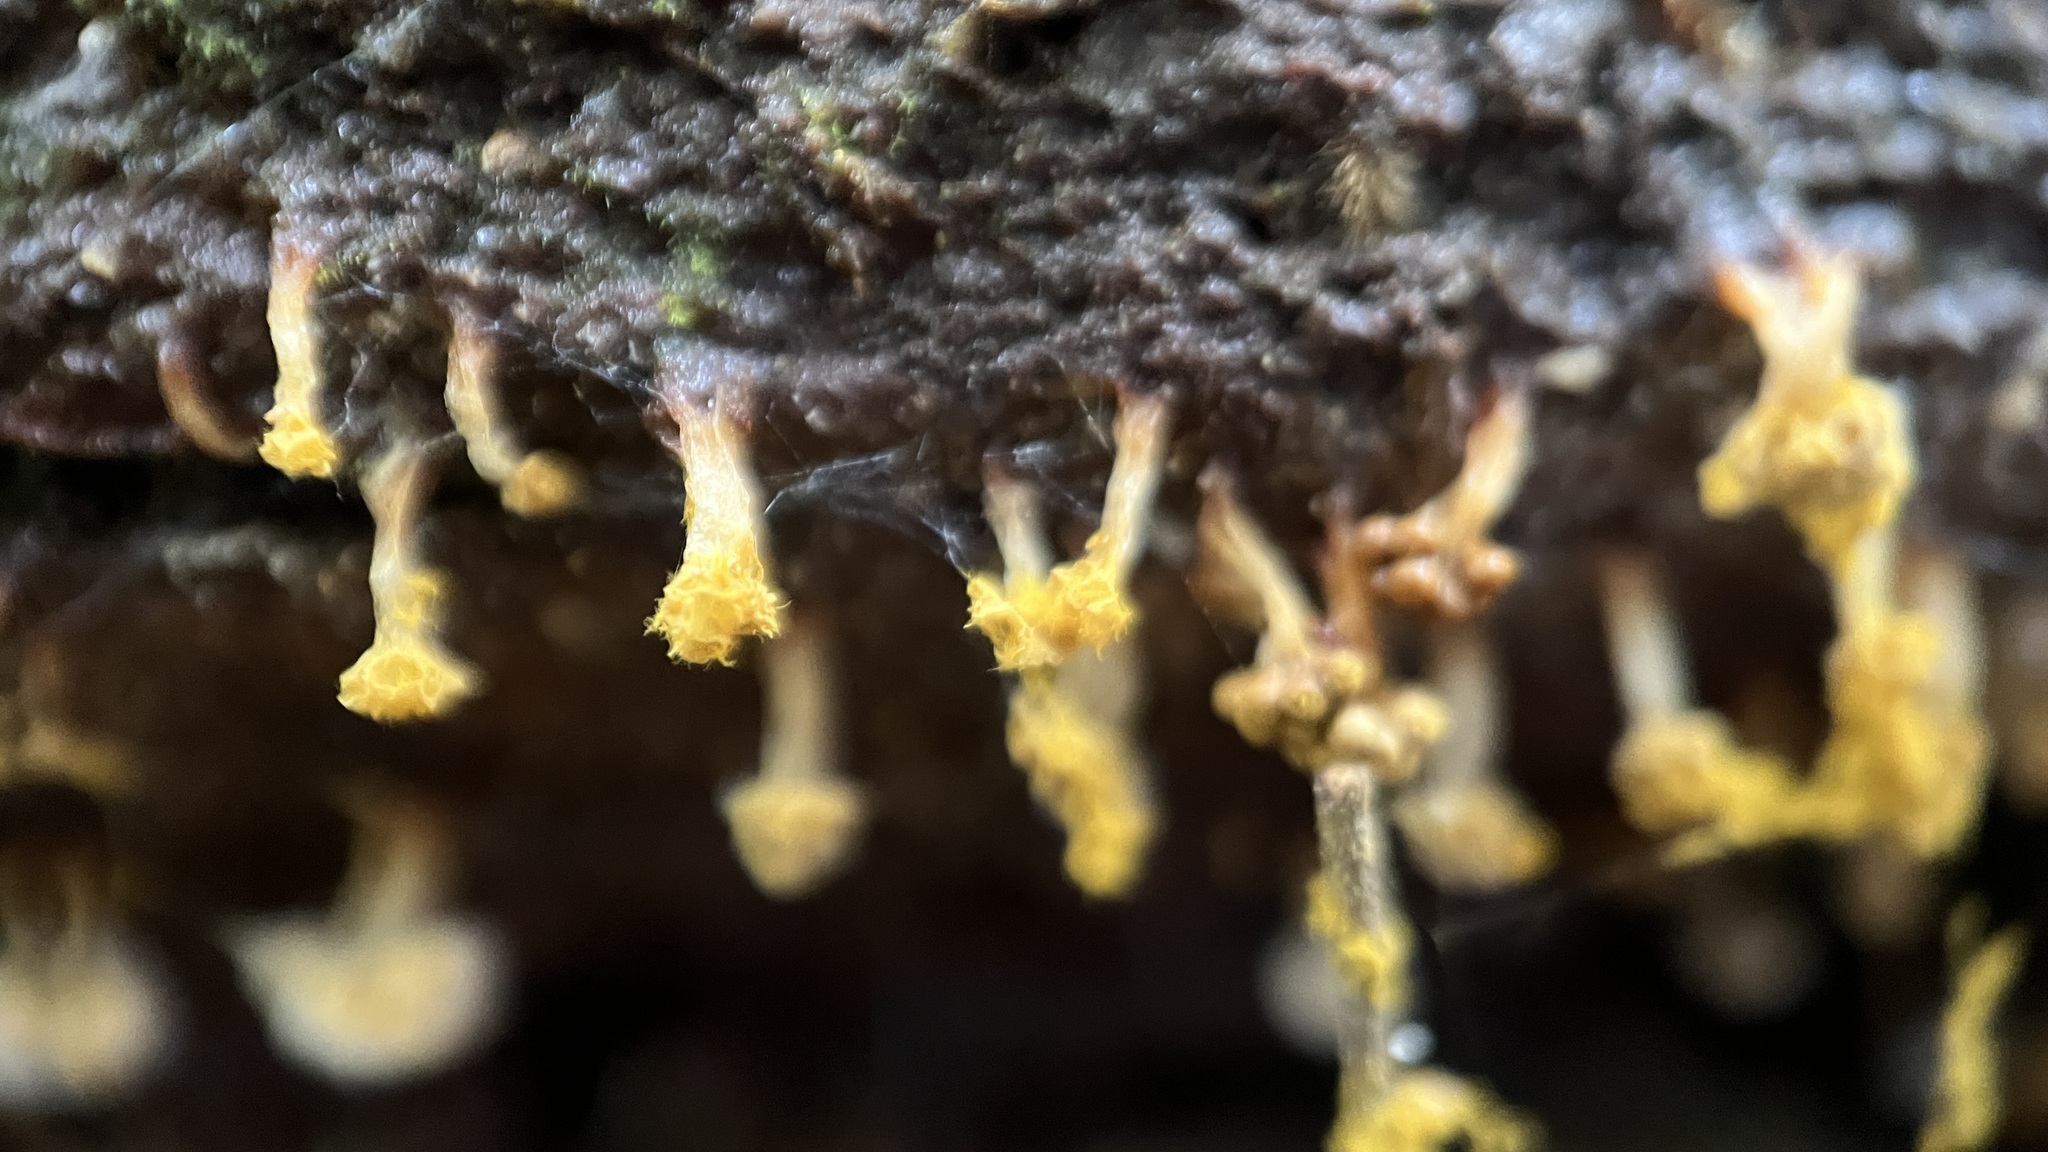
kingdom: Protozoa
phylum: Mycetozoa
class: Myxomycetes
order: Trichiales
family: Trichiaceae
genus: Oligonema
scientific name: Oligonema verrucosum
